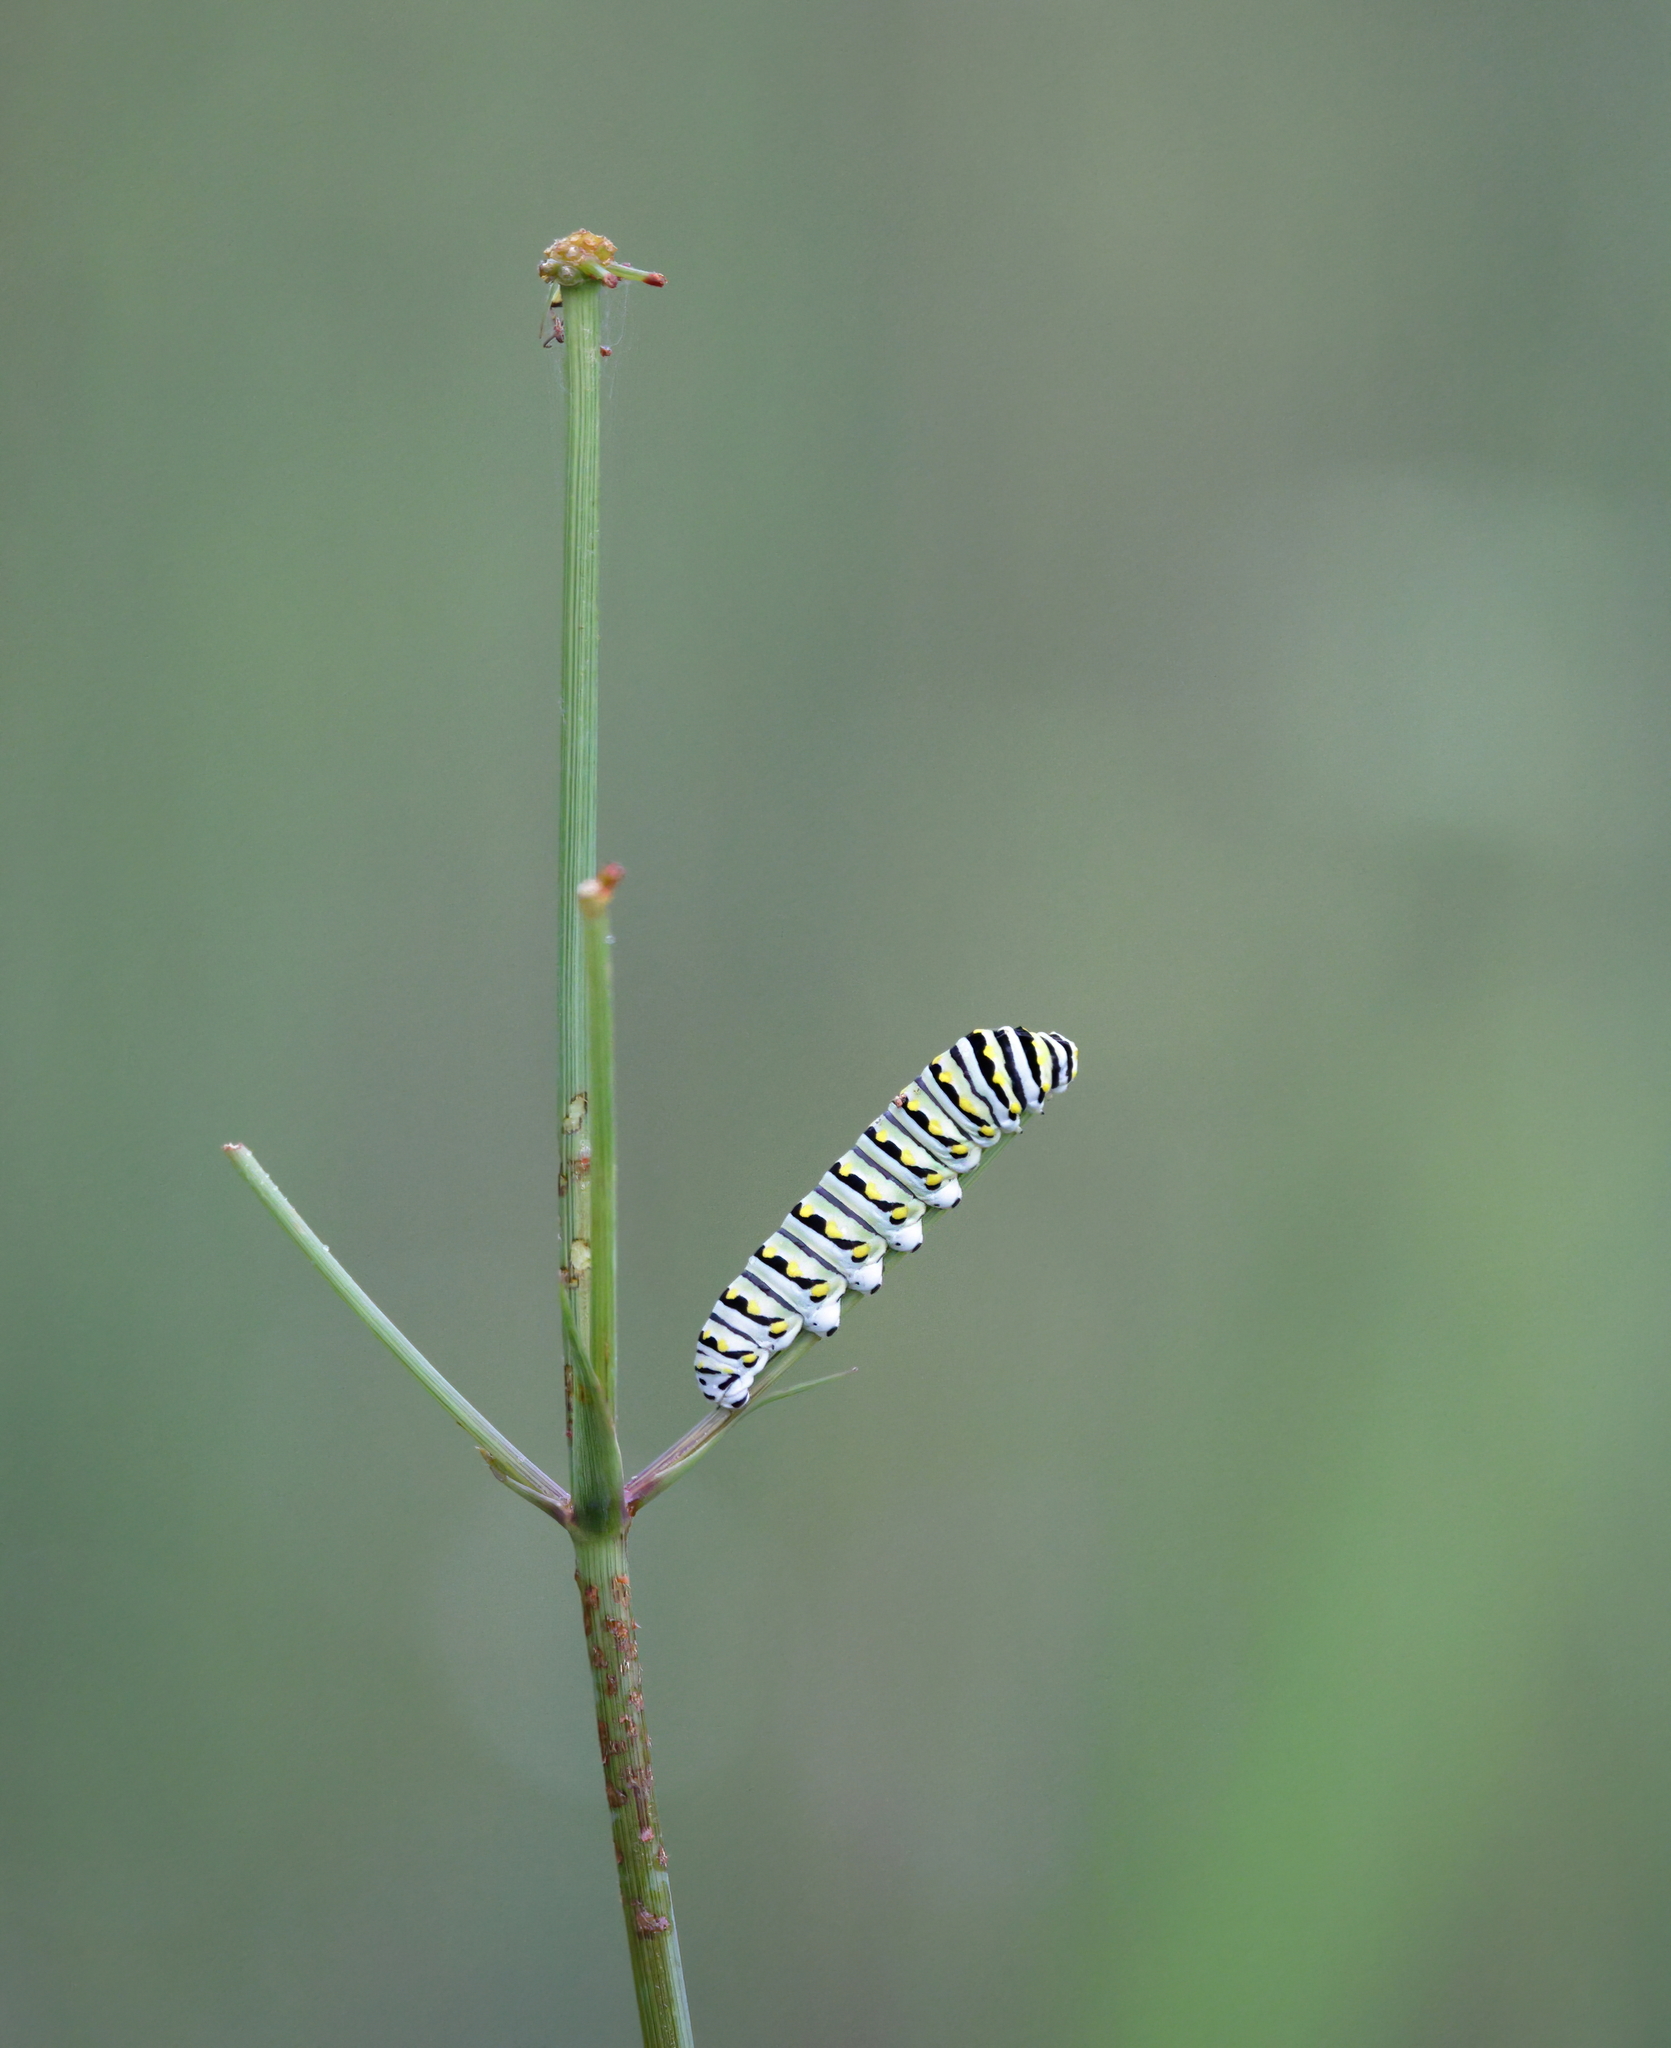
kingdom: Animalia
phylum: Arthropoda
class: Insecta
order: Lepidoptera
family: Papilionidae
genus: Papilio
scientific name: Papilio polyxenes
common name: Black swallowtail
